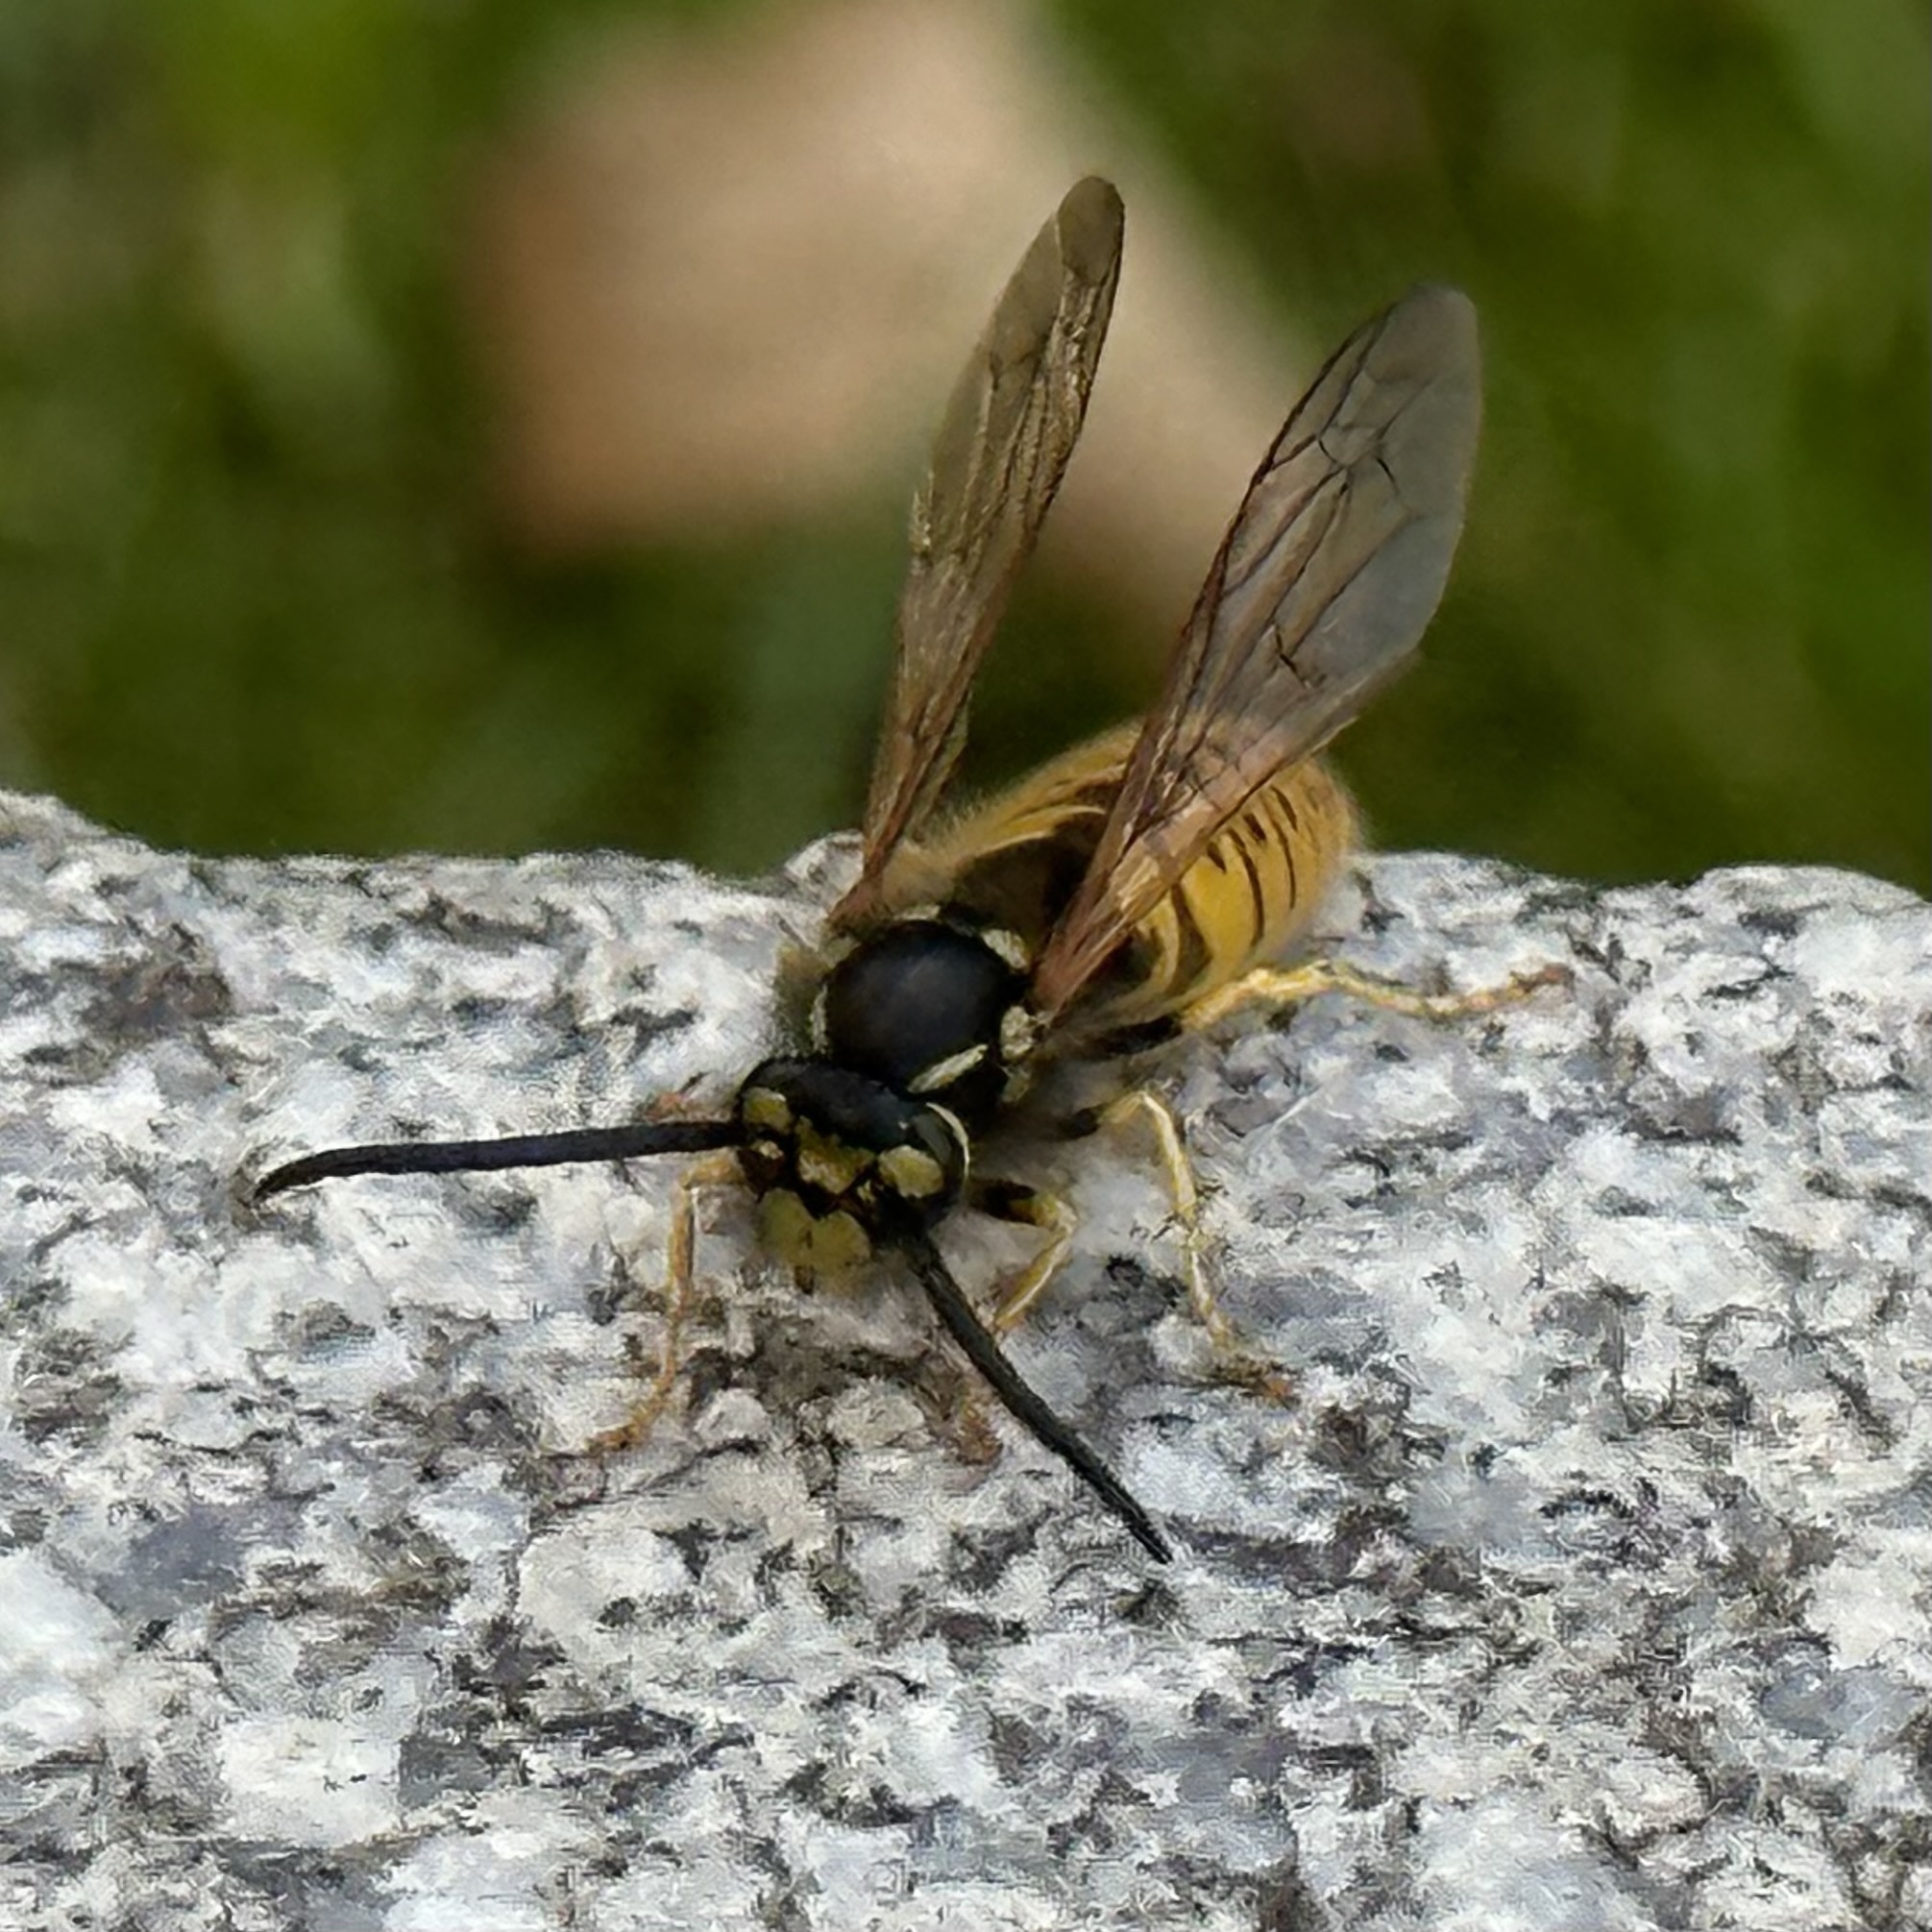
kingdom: Animalia
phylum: Arthropoda
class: Insecta
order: Hymenoptera
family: Vespidae
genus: Vespula
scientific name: Vespula germanica
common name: German wasp
